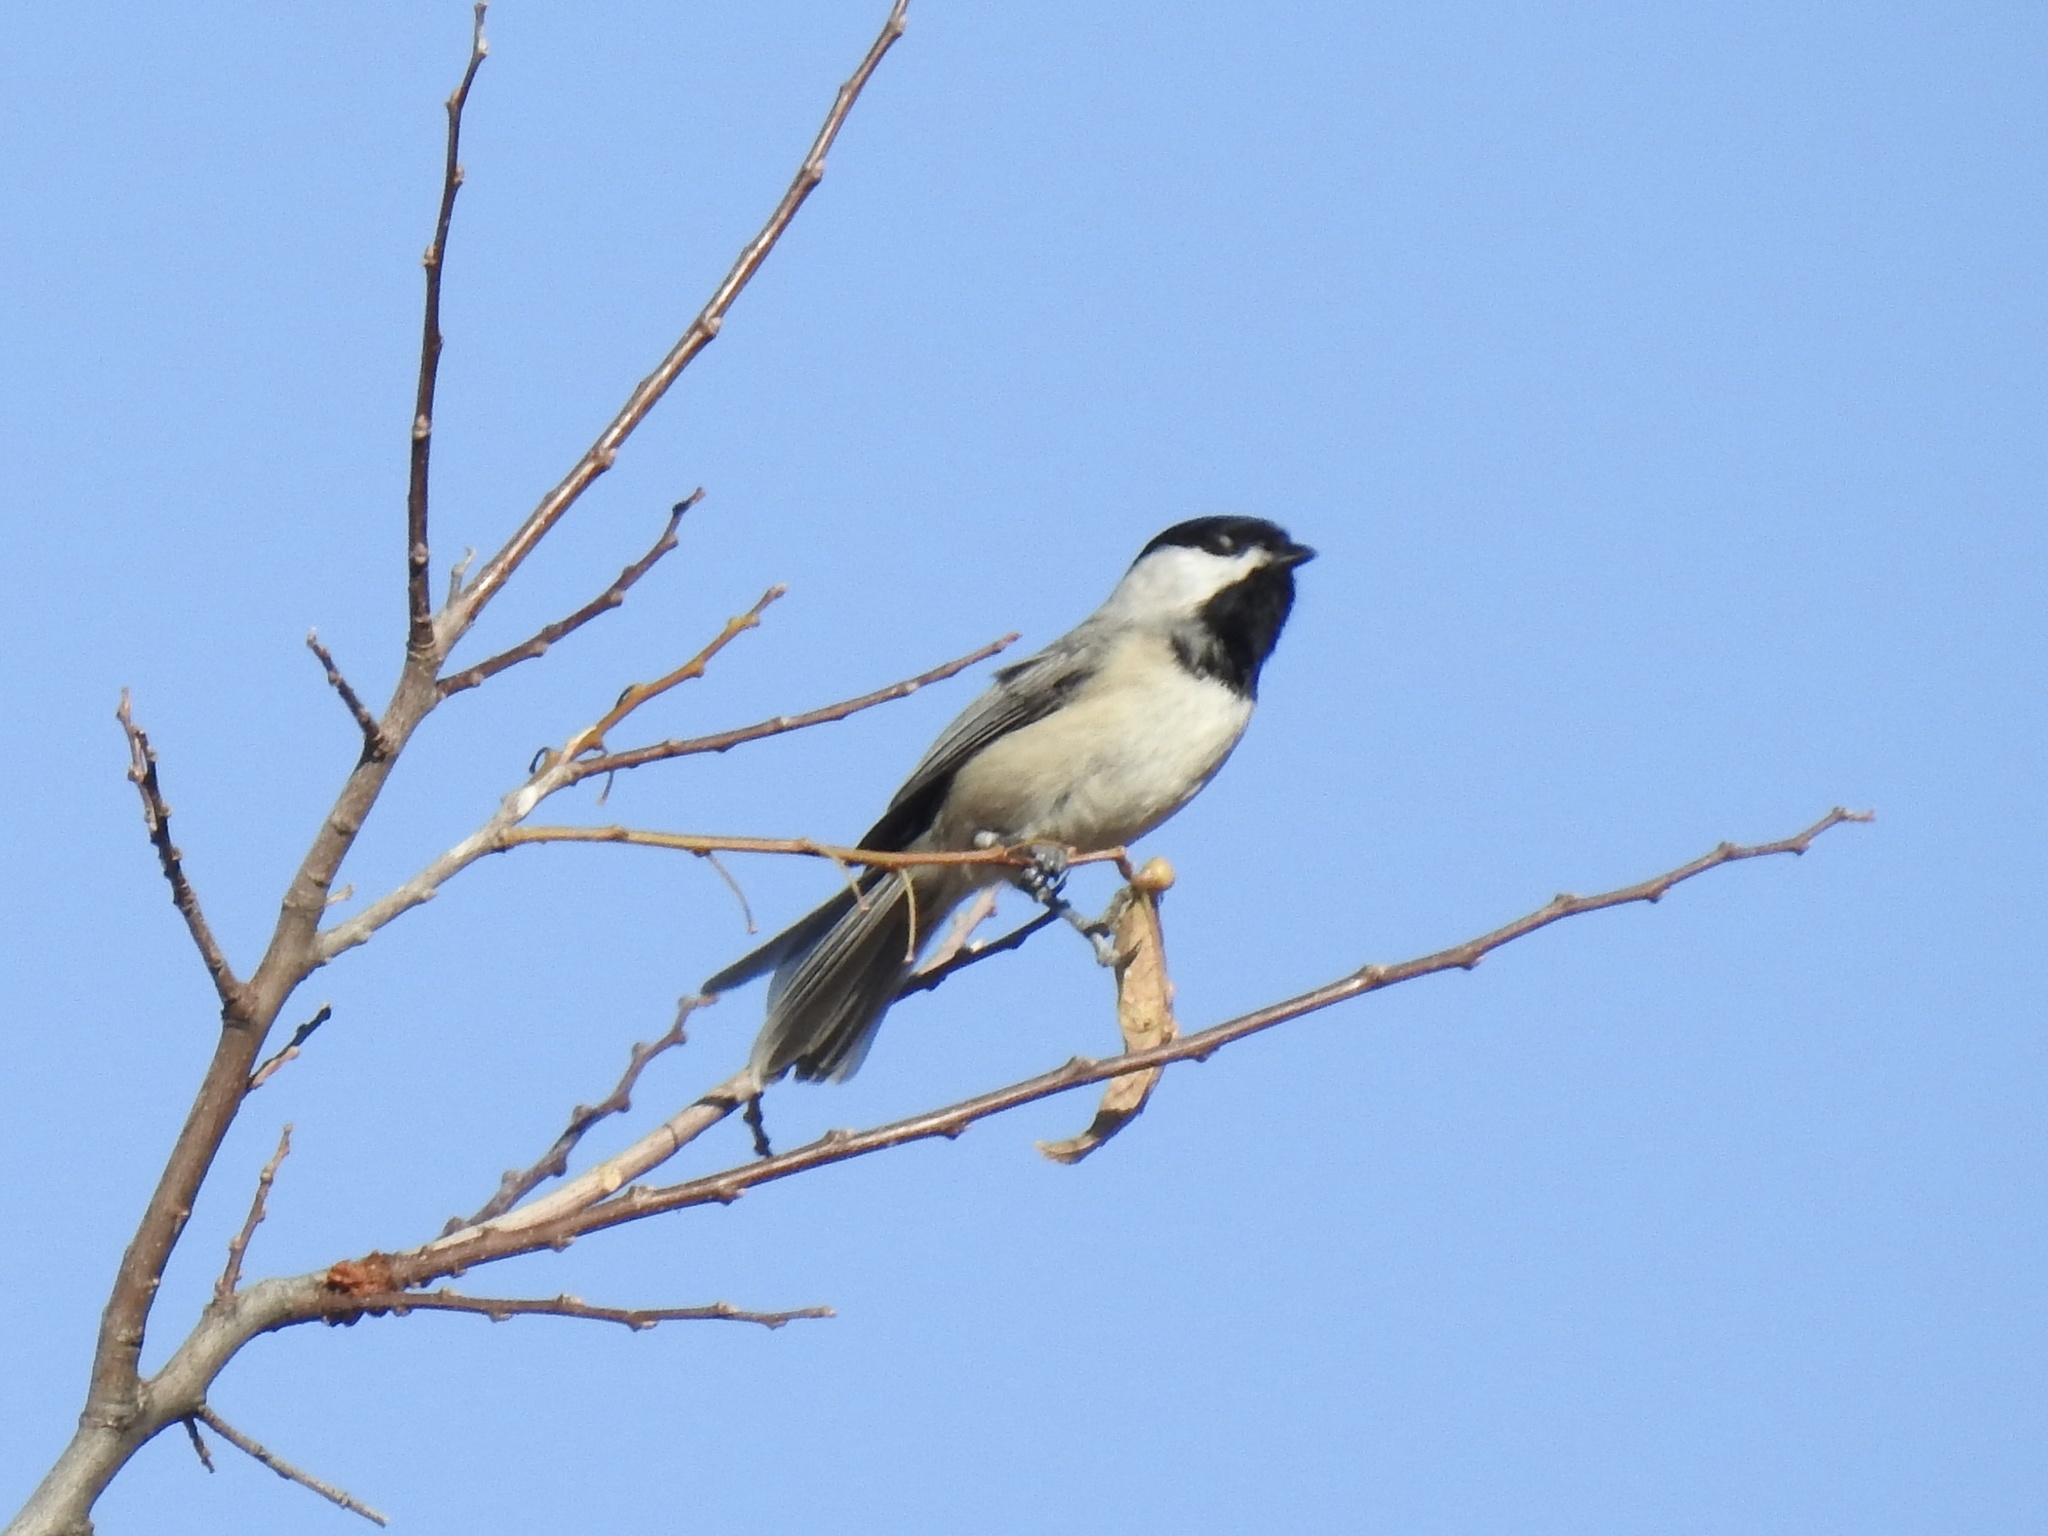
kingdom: Animalia
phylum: Chordata
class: Aves
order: Passeriformes
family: Paridae
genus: Poecile
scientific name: Poecile carolinensis
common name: Carolina chickadee
